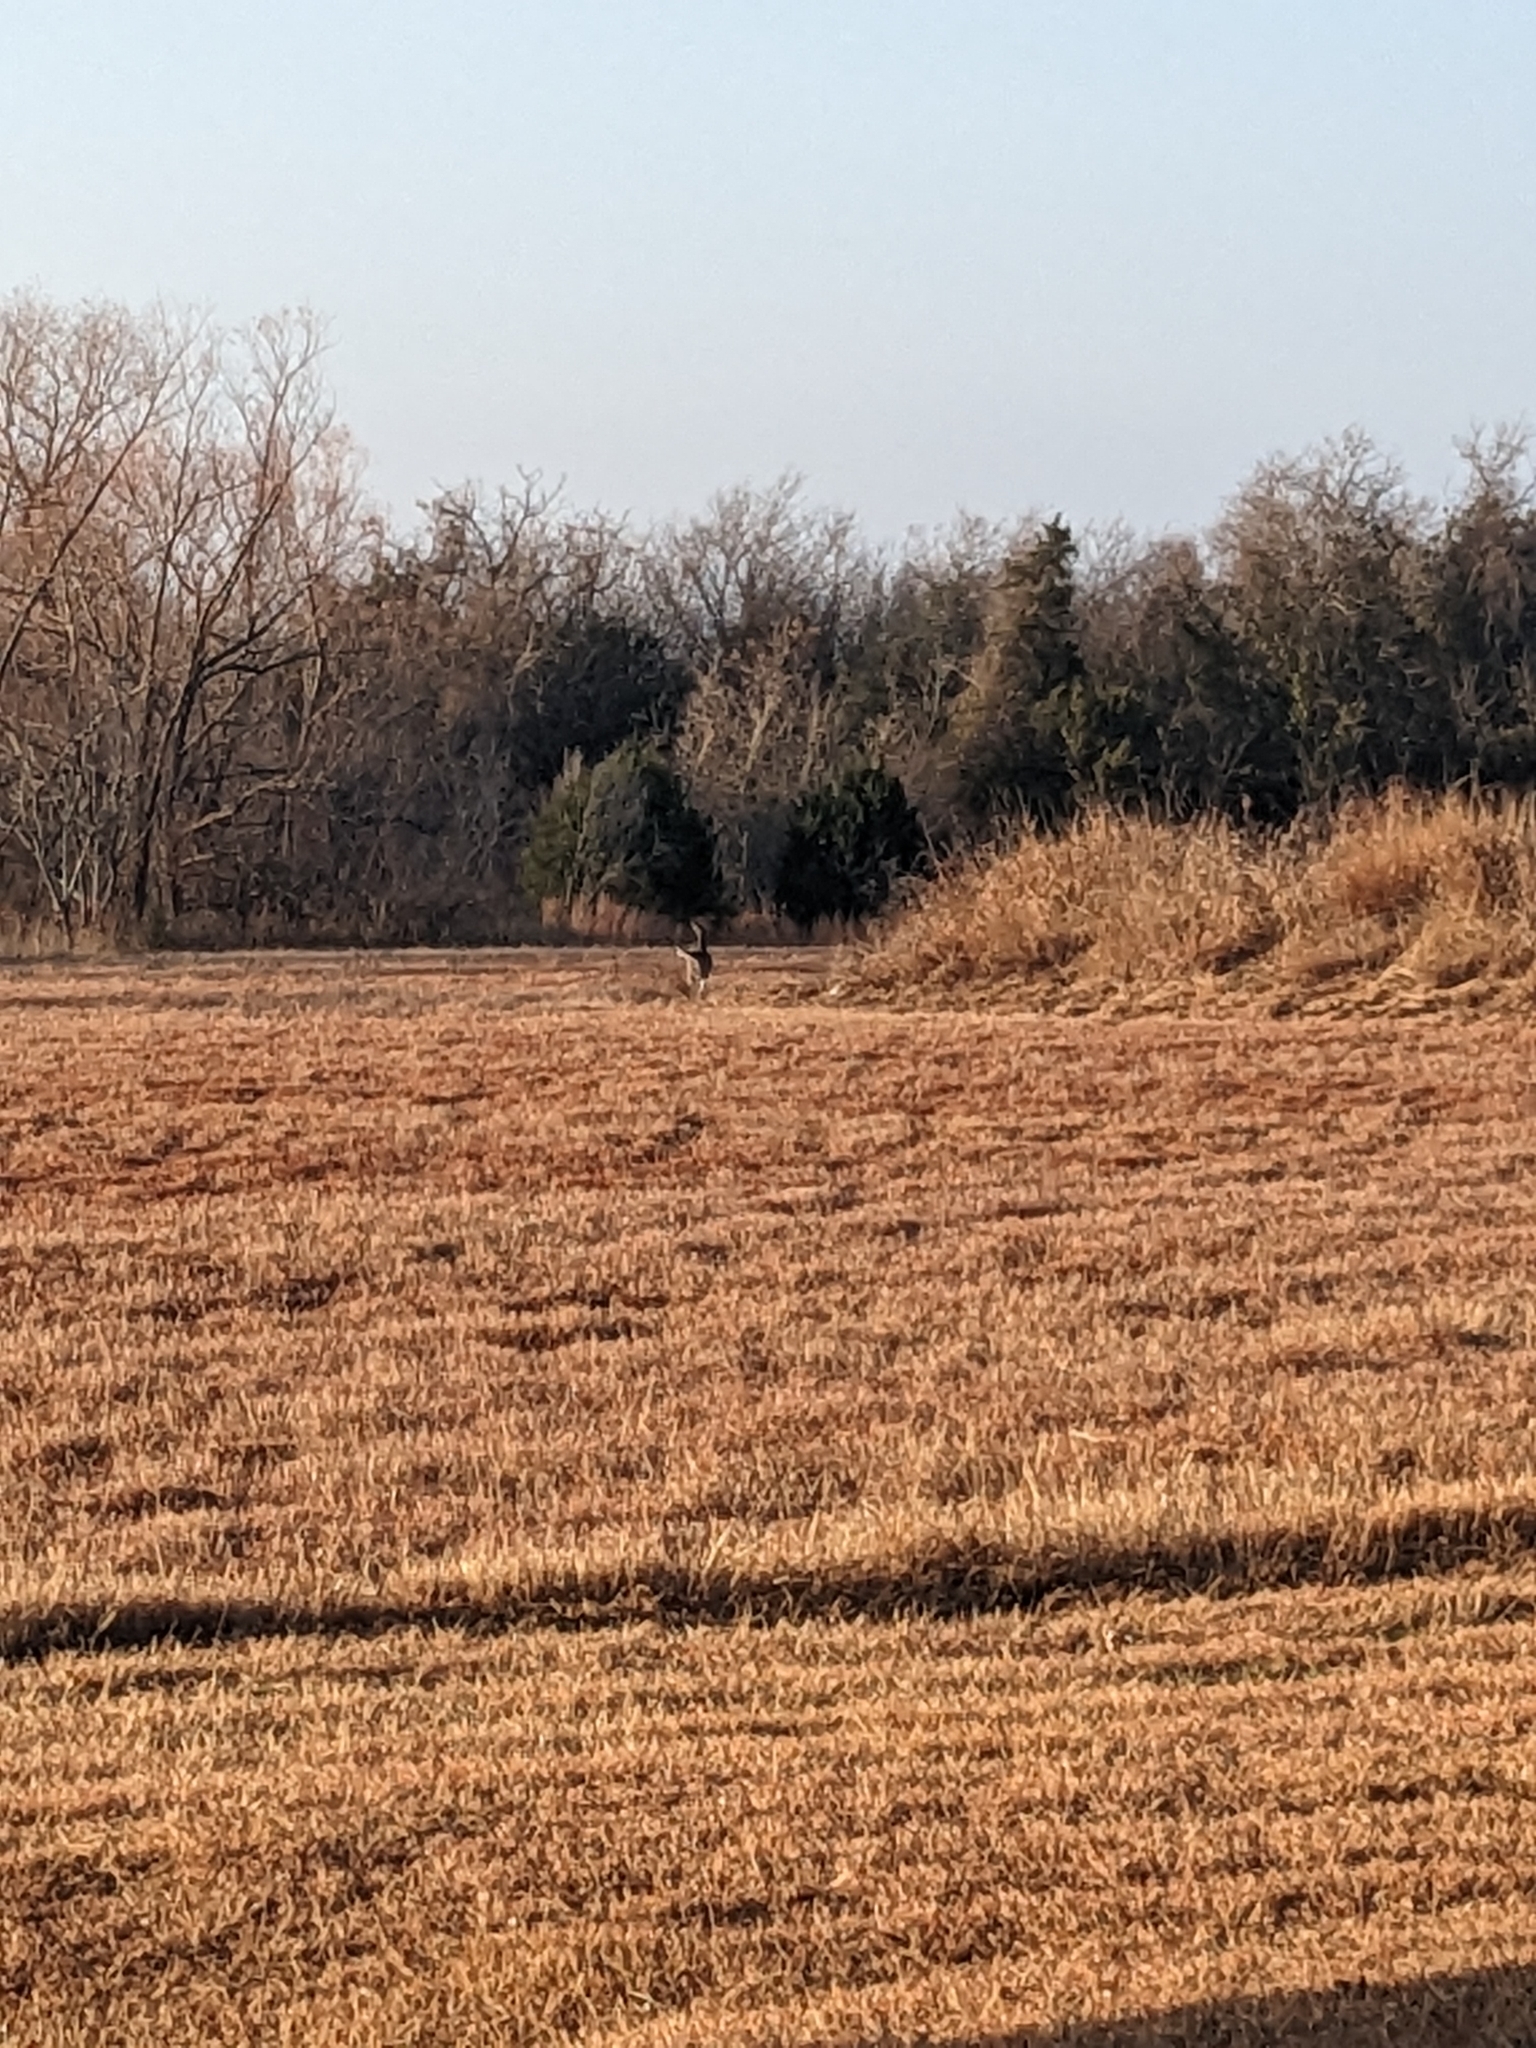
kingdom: Animalia
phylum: Chordata
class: Mammalia
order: Artiodactyla
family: Cervidae
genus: Odocoileus
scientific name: Odocoileus virginianus
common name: White-tailed deer
